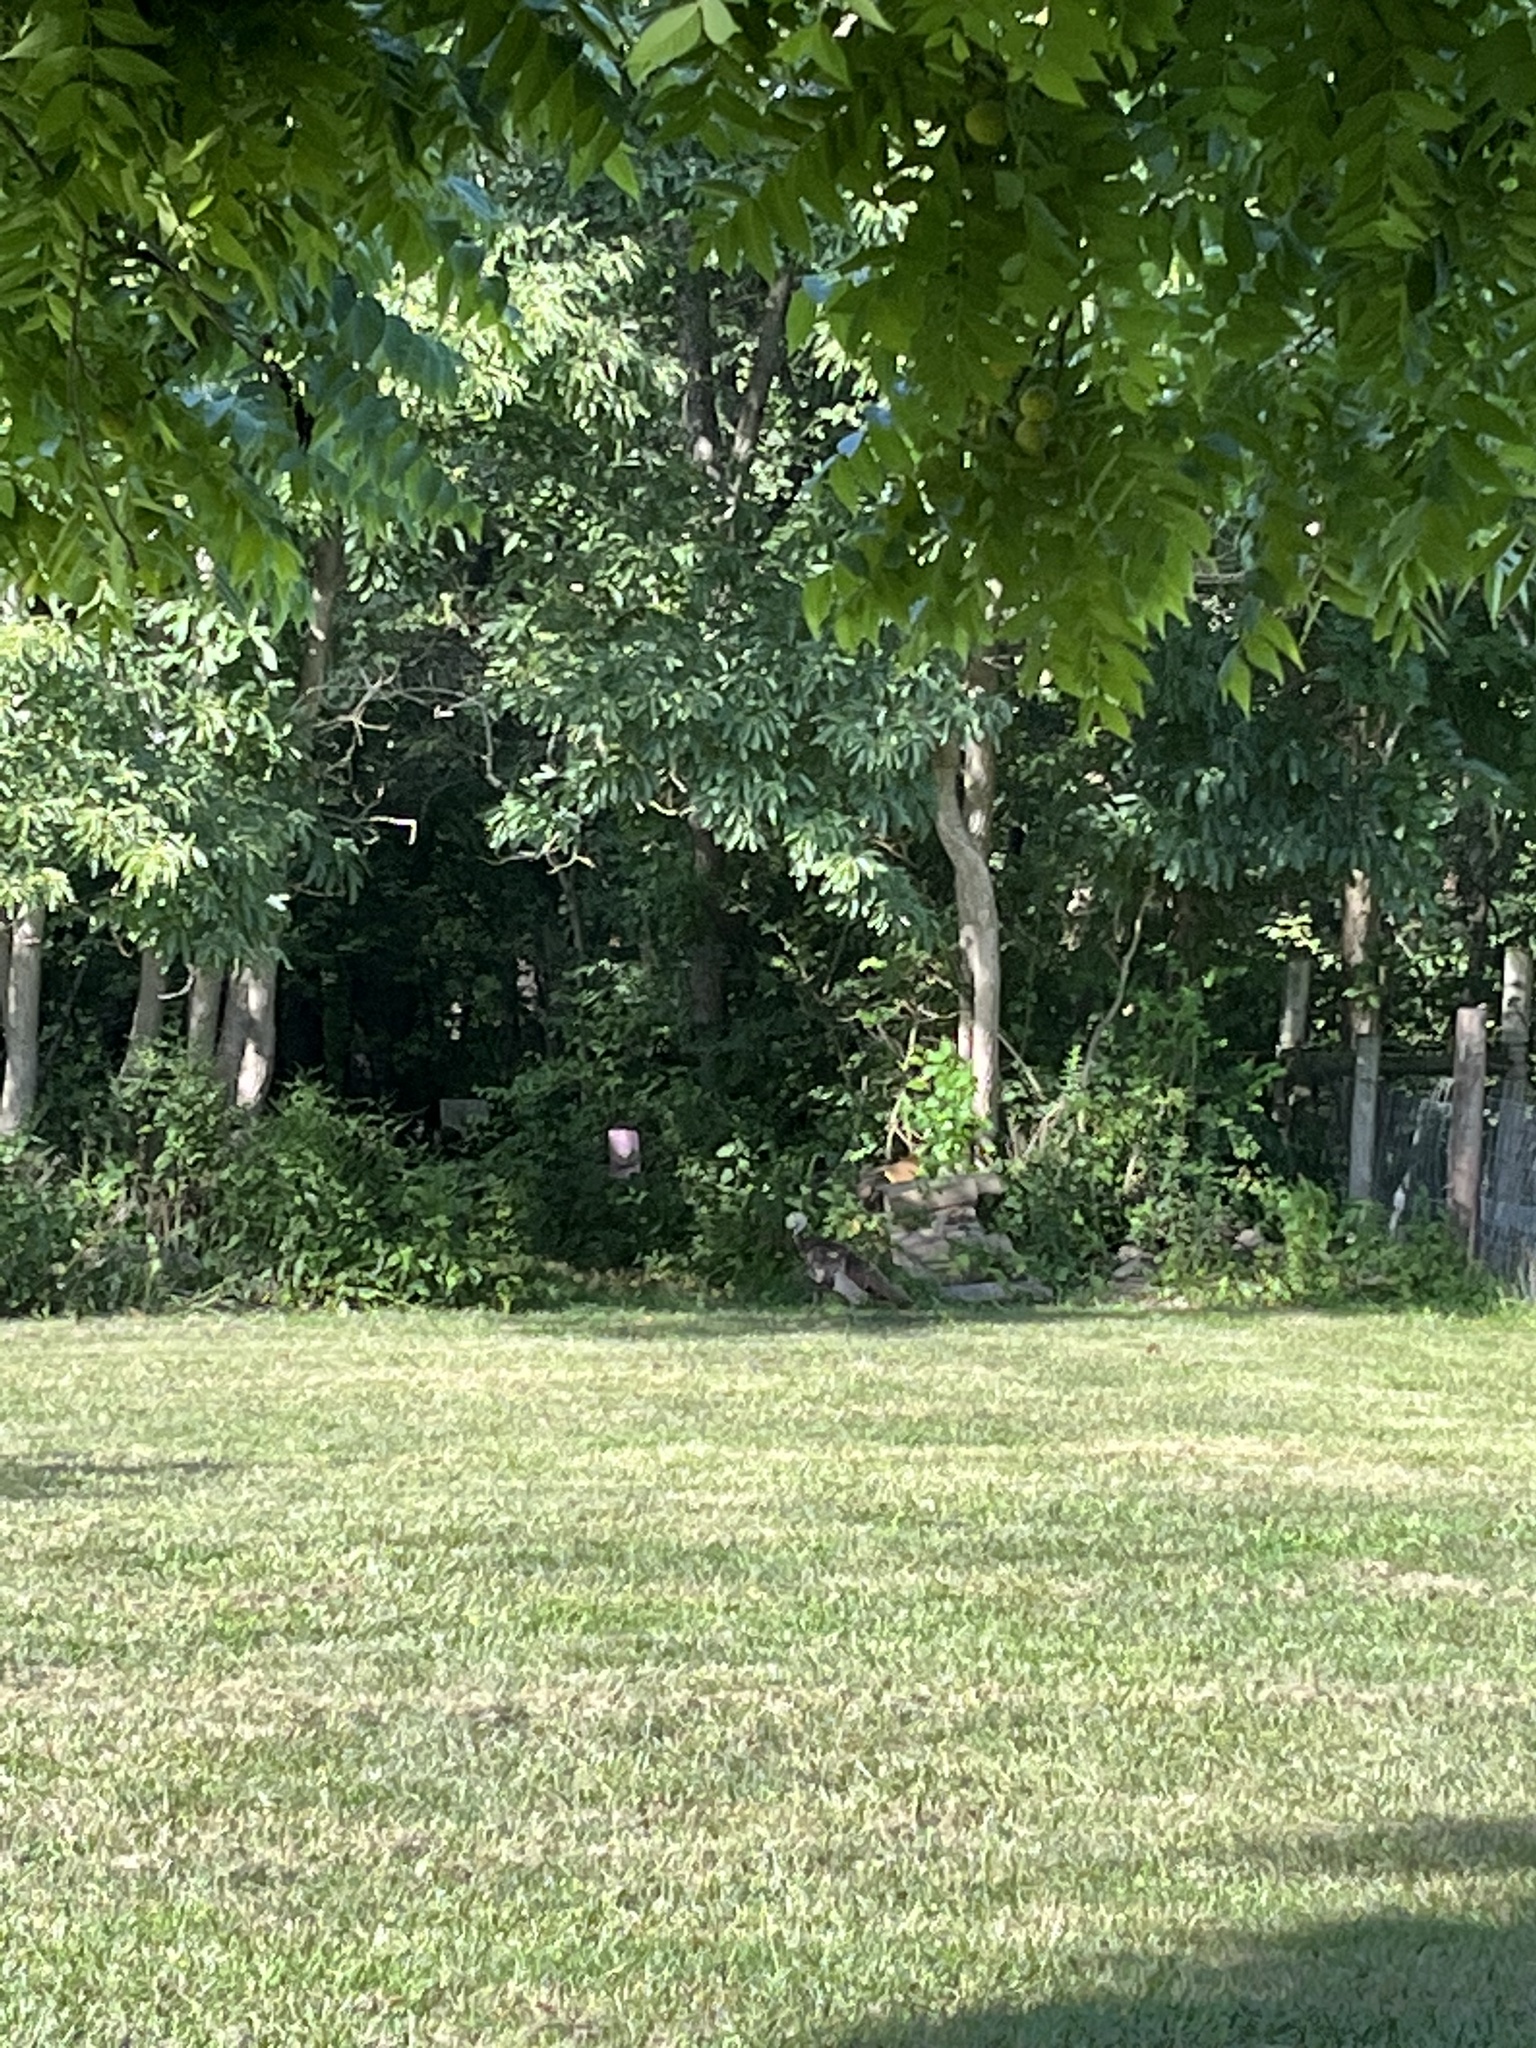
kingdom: Animalia
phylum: Chordata
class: Aves
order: Galliformes
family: Phasianidae
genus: Meleagris
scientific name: Meleagris gallopavo
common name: Wild turkey
